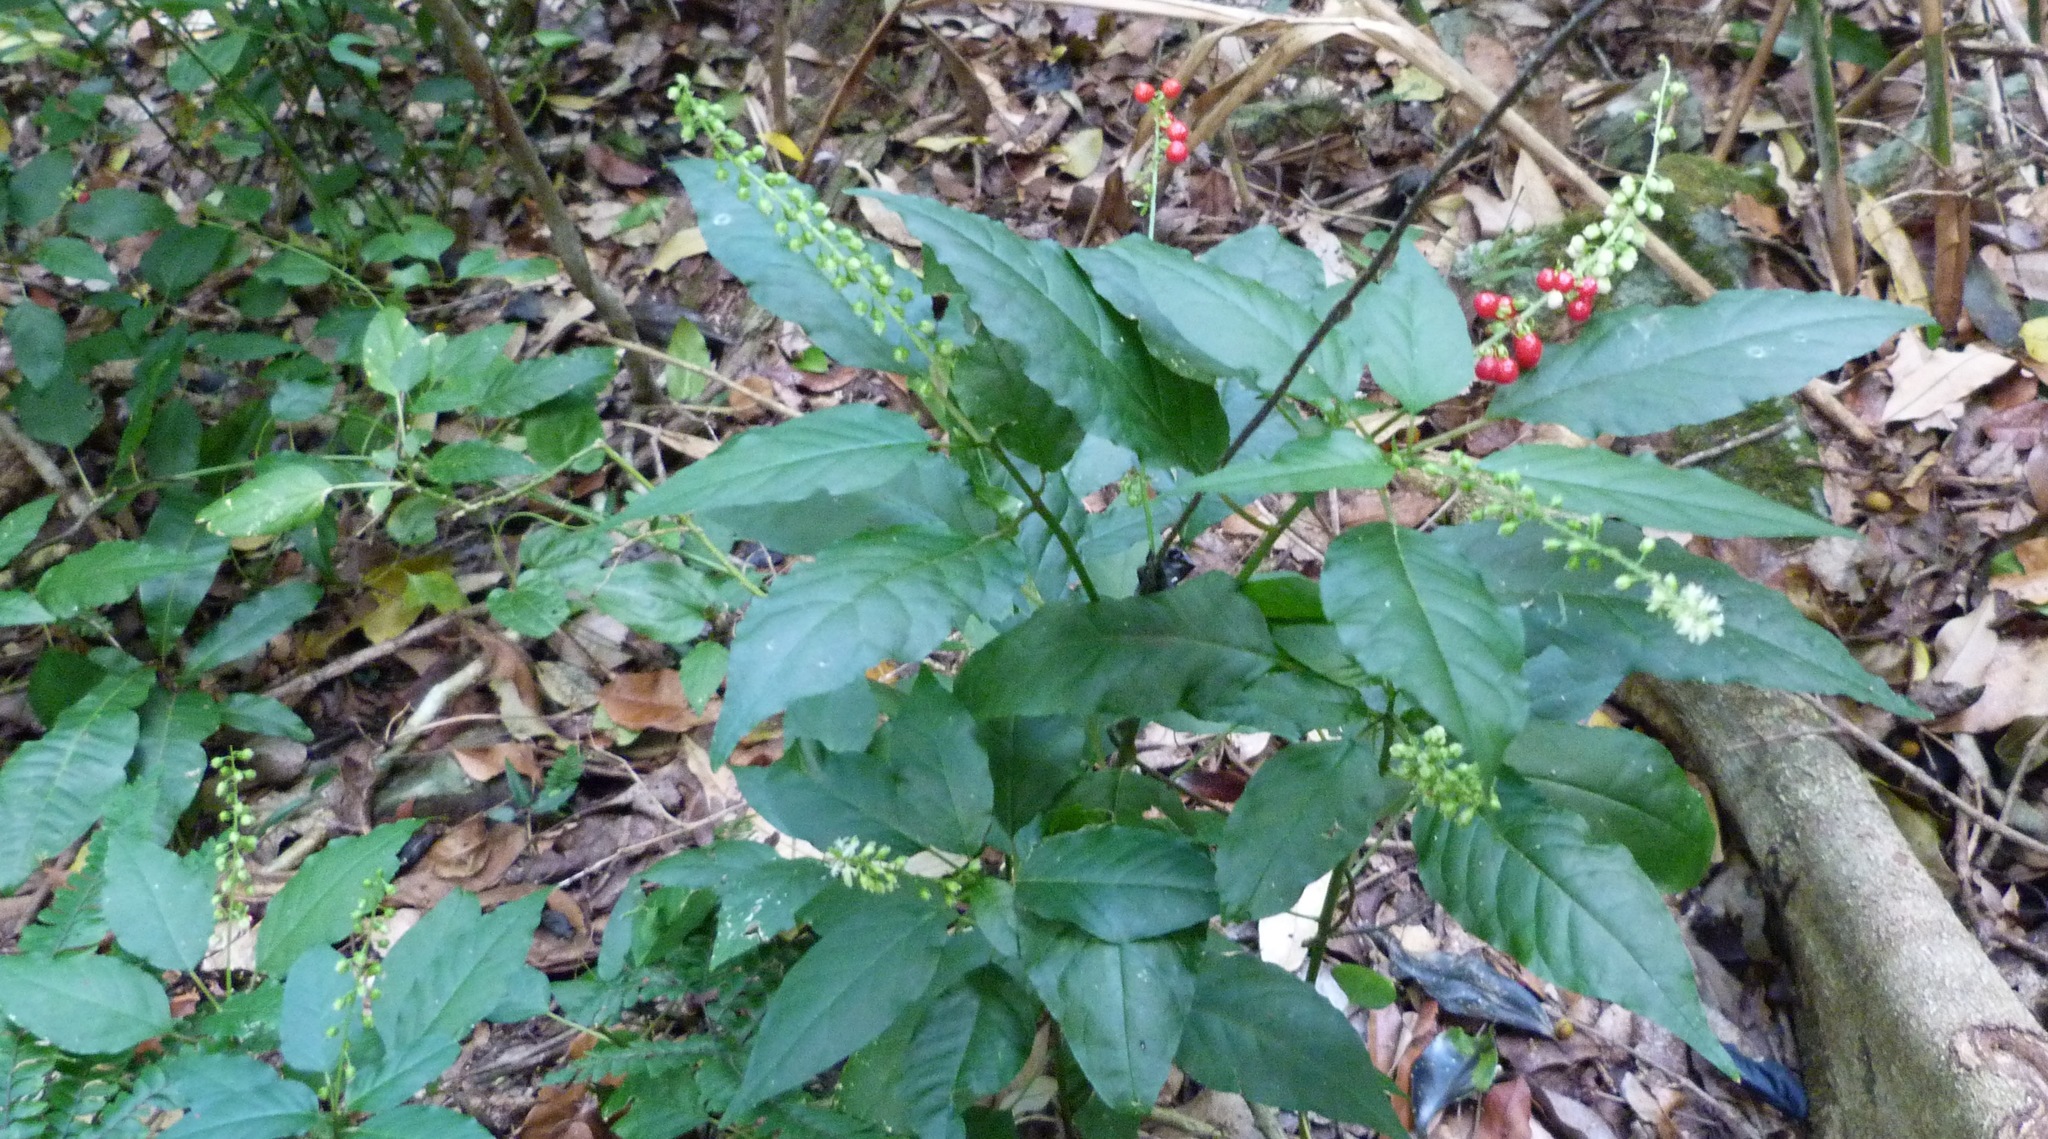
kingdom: Plantae
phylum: Tracheophyta
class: Magnoliopsida
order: Caryophyllales
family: Phytolaccaceae
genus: Rivina
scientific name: Rivina humilis
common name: Rougeplant
